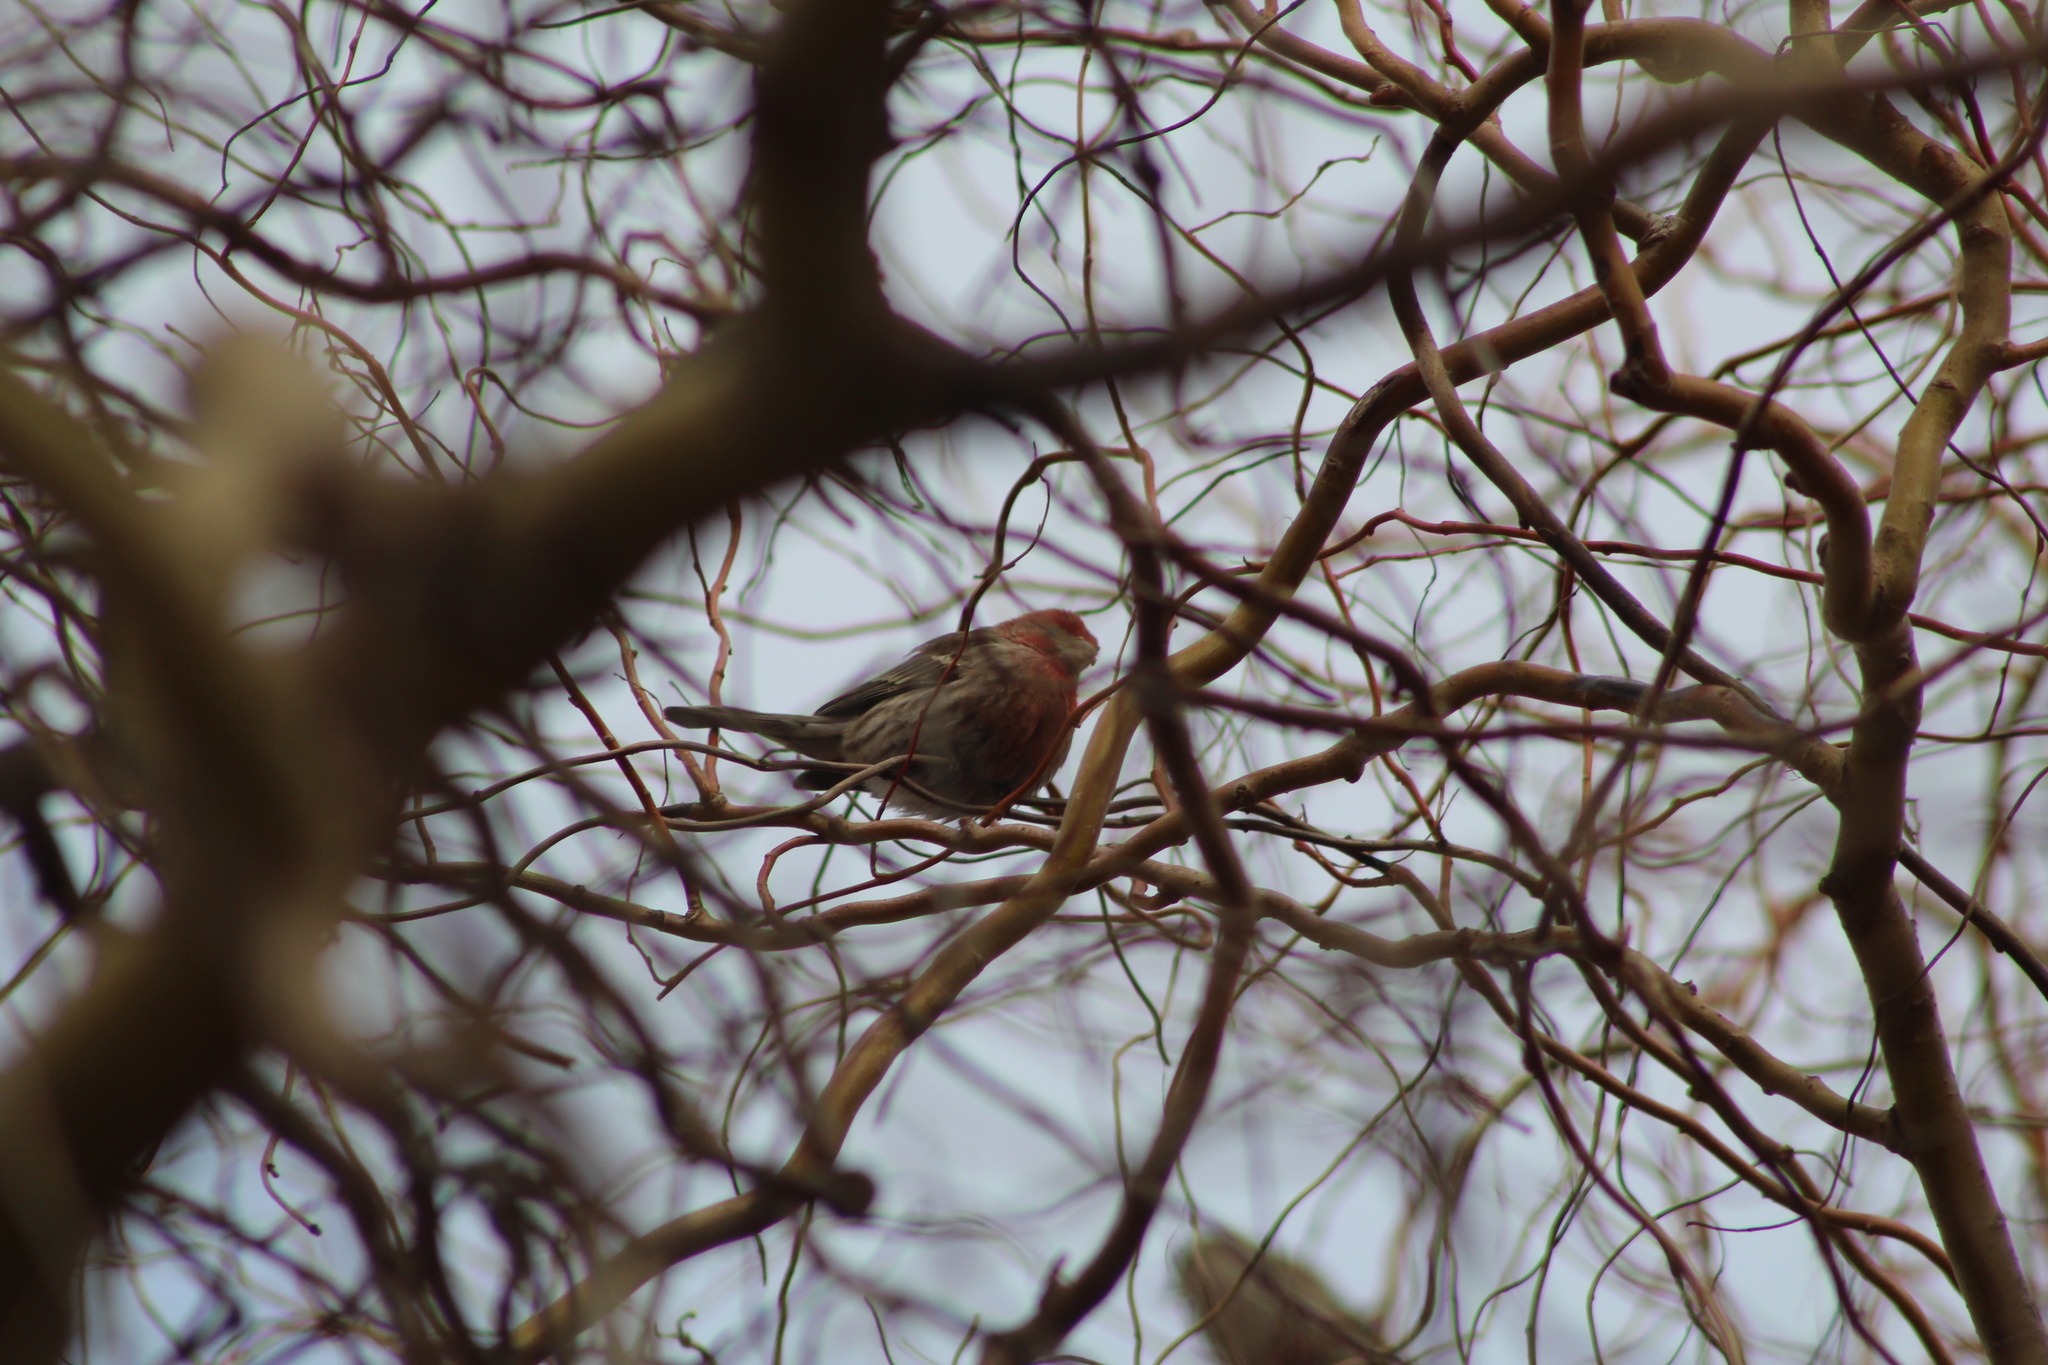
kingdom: Animalia
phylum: Chordata
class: Aves
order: Passeriformes
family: Fringillidae
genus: Haemorhous
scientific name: Haemorhous mexicanus
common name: House finch
